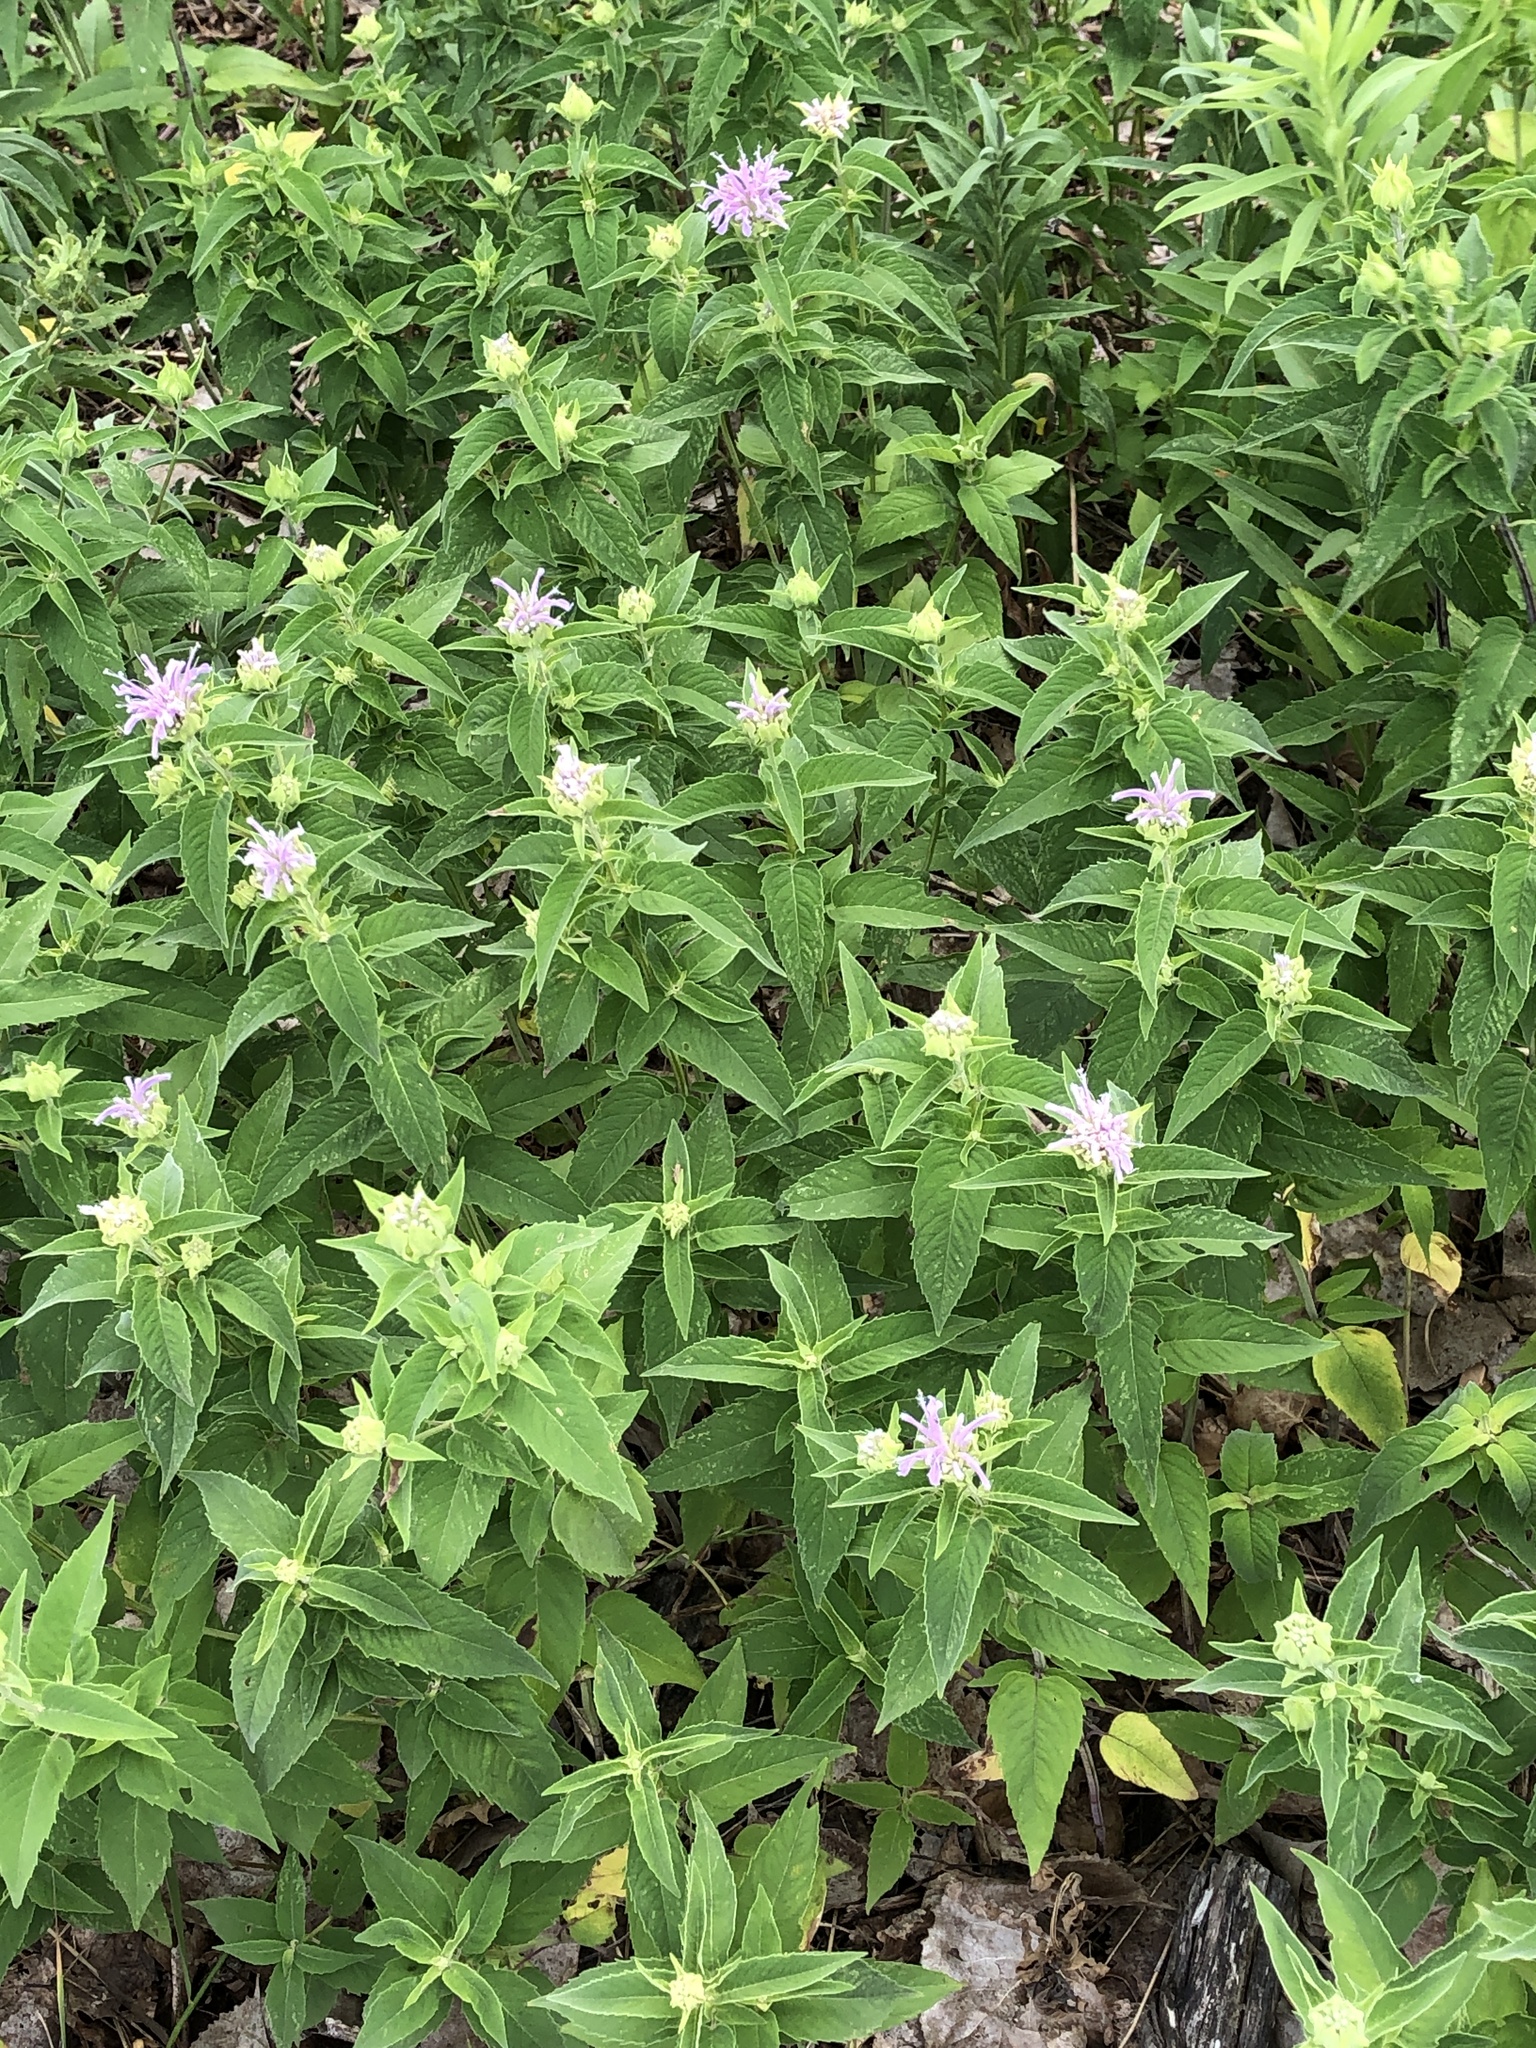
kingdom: Plantae
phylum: Tracheophyta
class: Magnoliopsida
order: Lamiales
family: Lamiaceae
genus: Monarda
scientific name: Monarda fistulosa
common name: Purple beebalm
